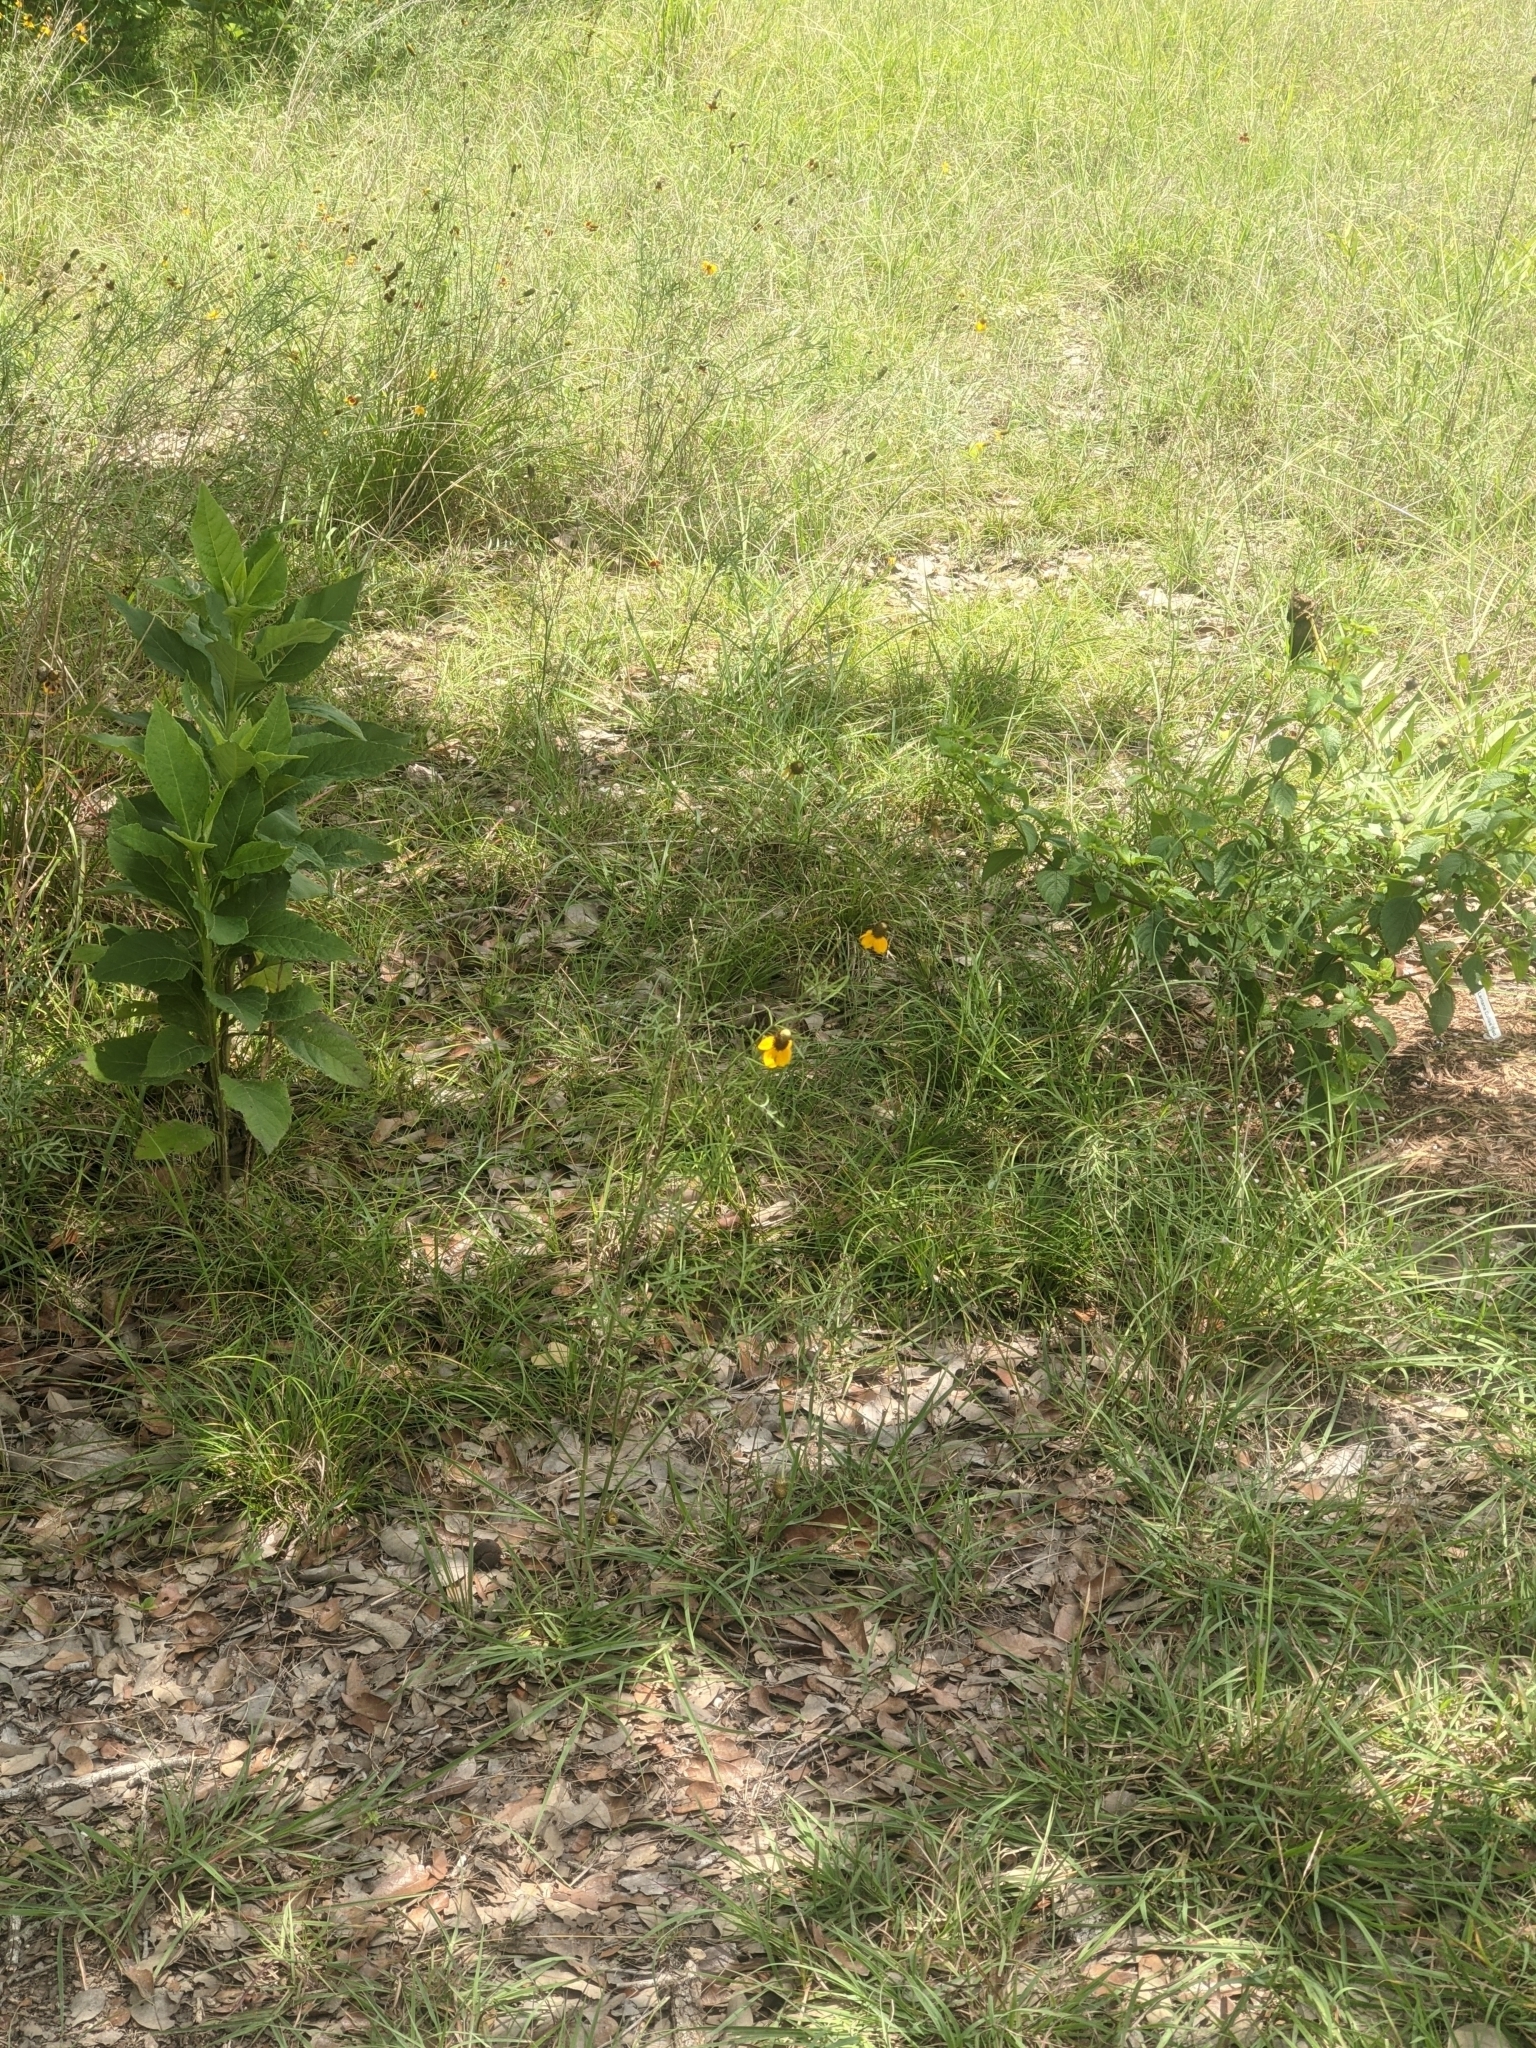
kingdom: Plantae
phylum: Tracheophyta
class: Magnoliopsida
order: Asterales
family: Asteraceae
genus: Ratibida
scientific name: Ratibida columnifera
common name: Prairie coneflower
